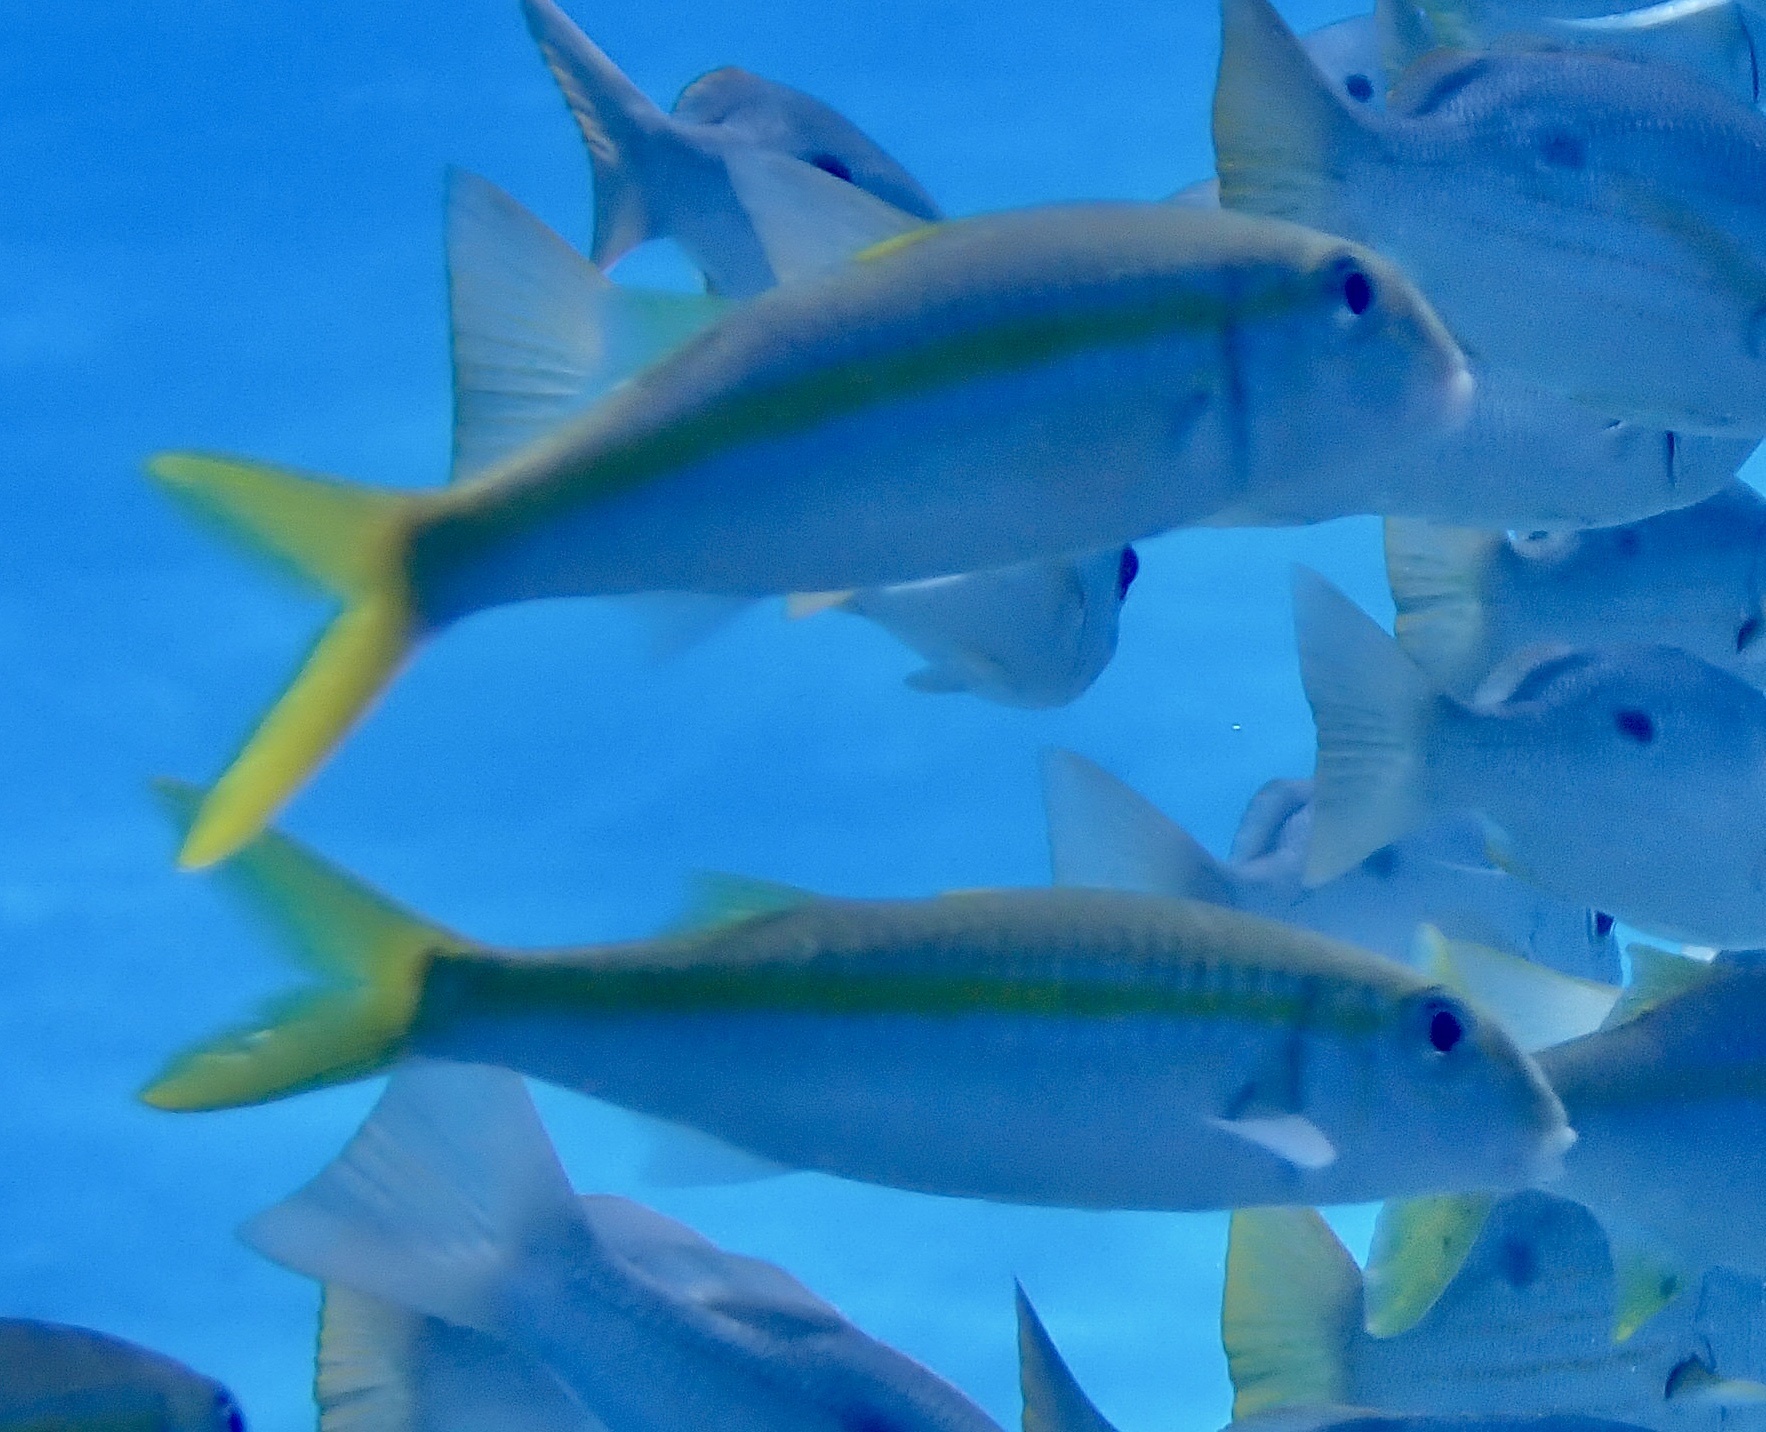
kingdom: Animalia
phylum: Chordata
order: Perciformes
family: Mullidae
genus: Mulloidichthys
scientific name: Mulloidichthys vanicolensis
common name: Yellowfin goatfish
